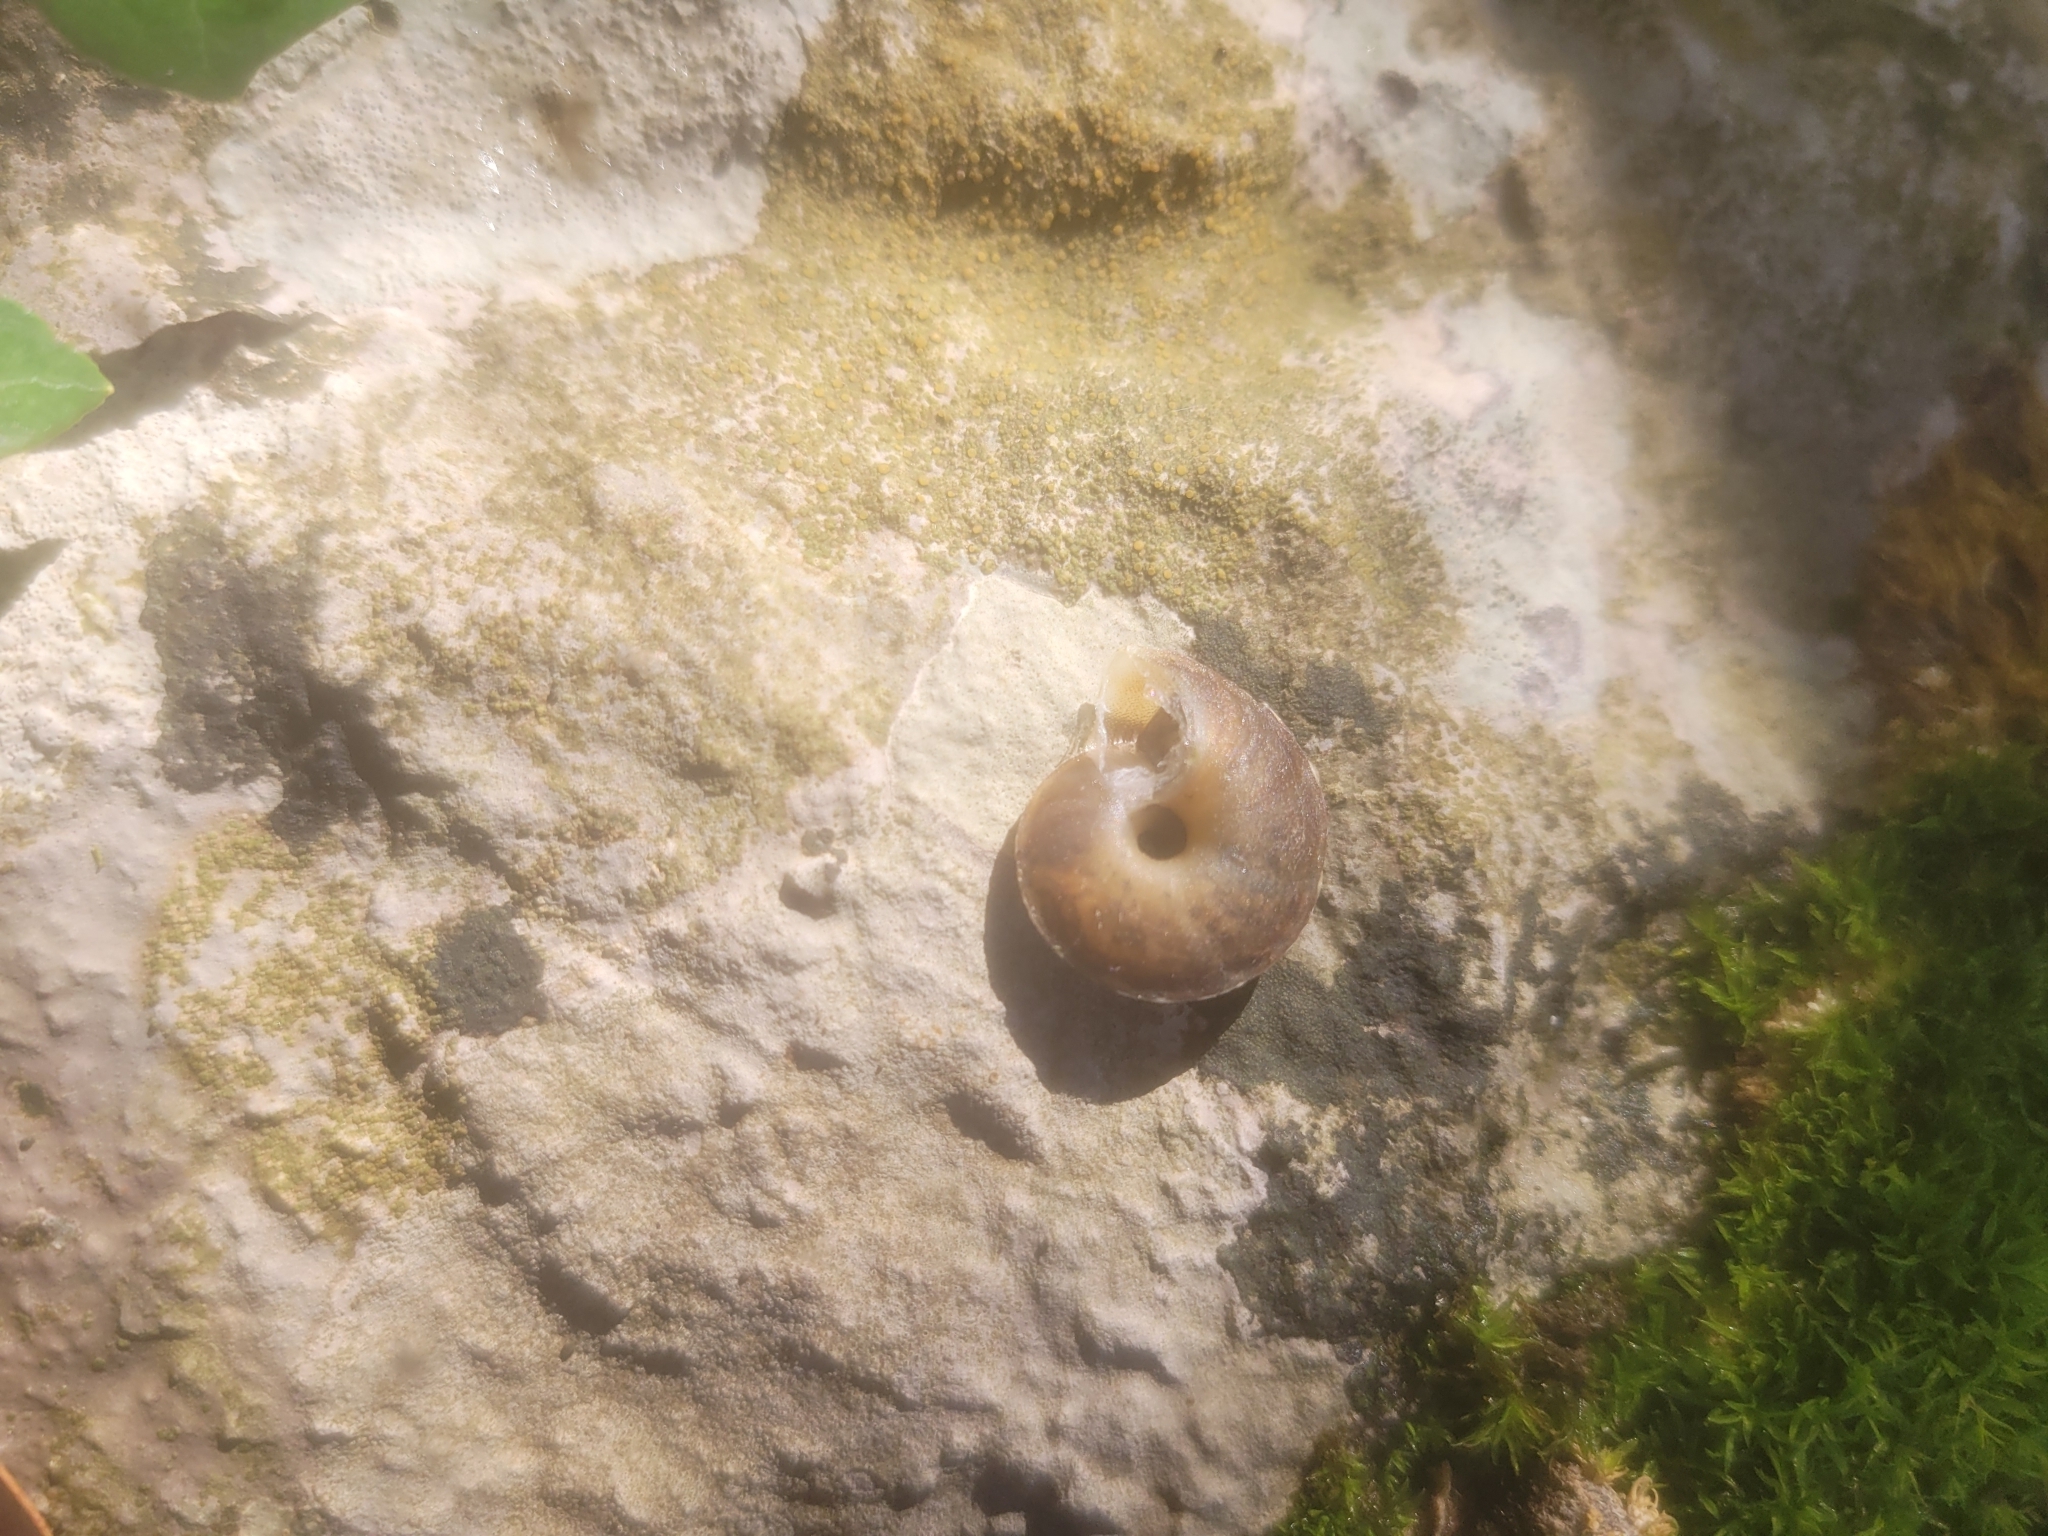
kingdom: Animalia
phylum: Mollusca
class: Gastropoda
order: Stylommatophora
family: Helicidae
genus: Helicigona
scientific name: Helicigona lapicida
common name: Lapidary snail
